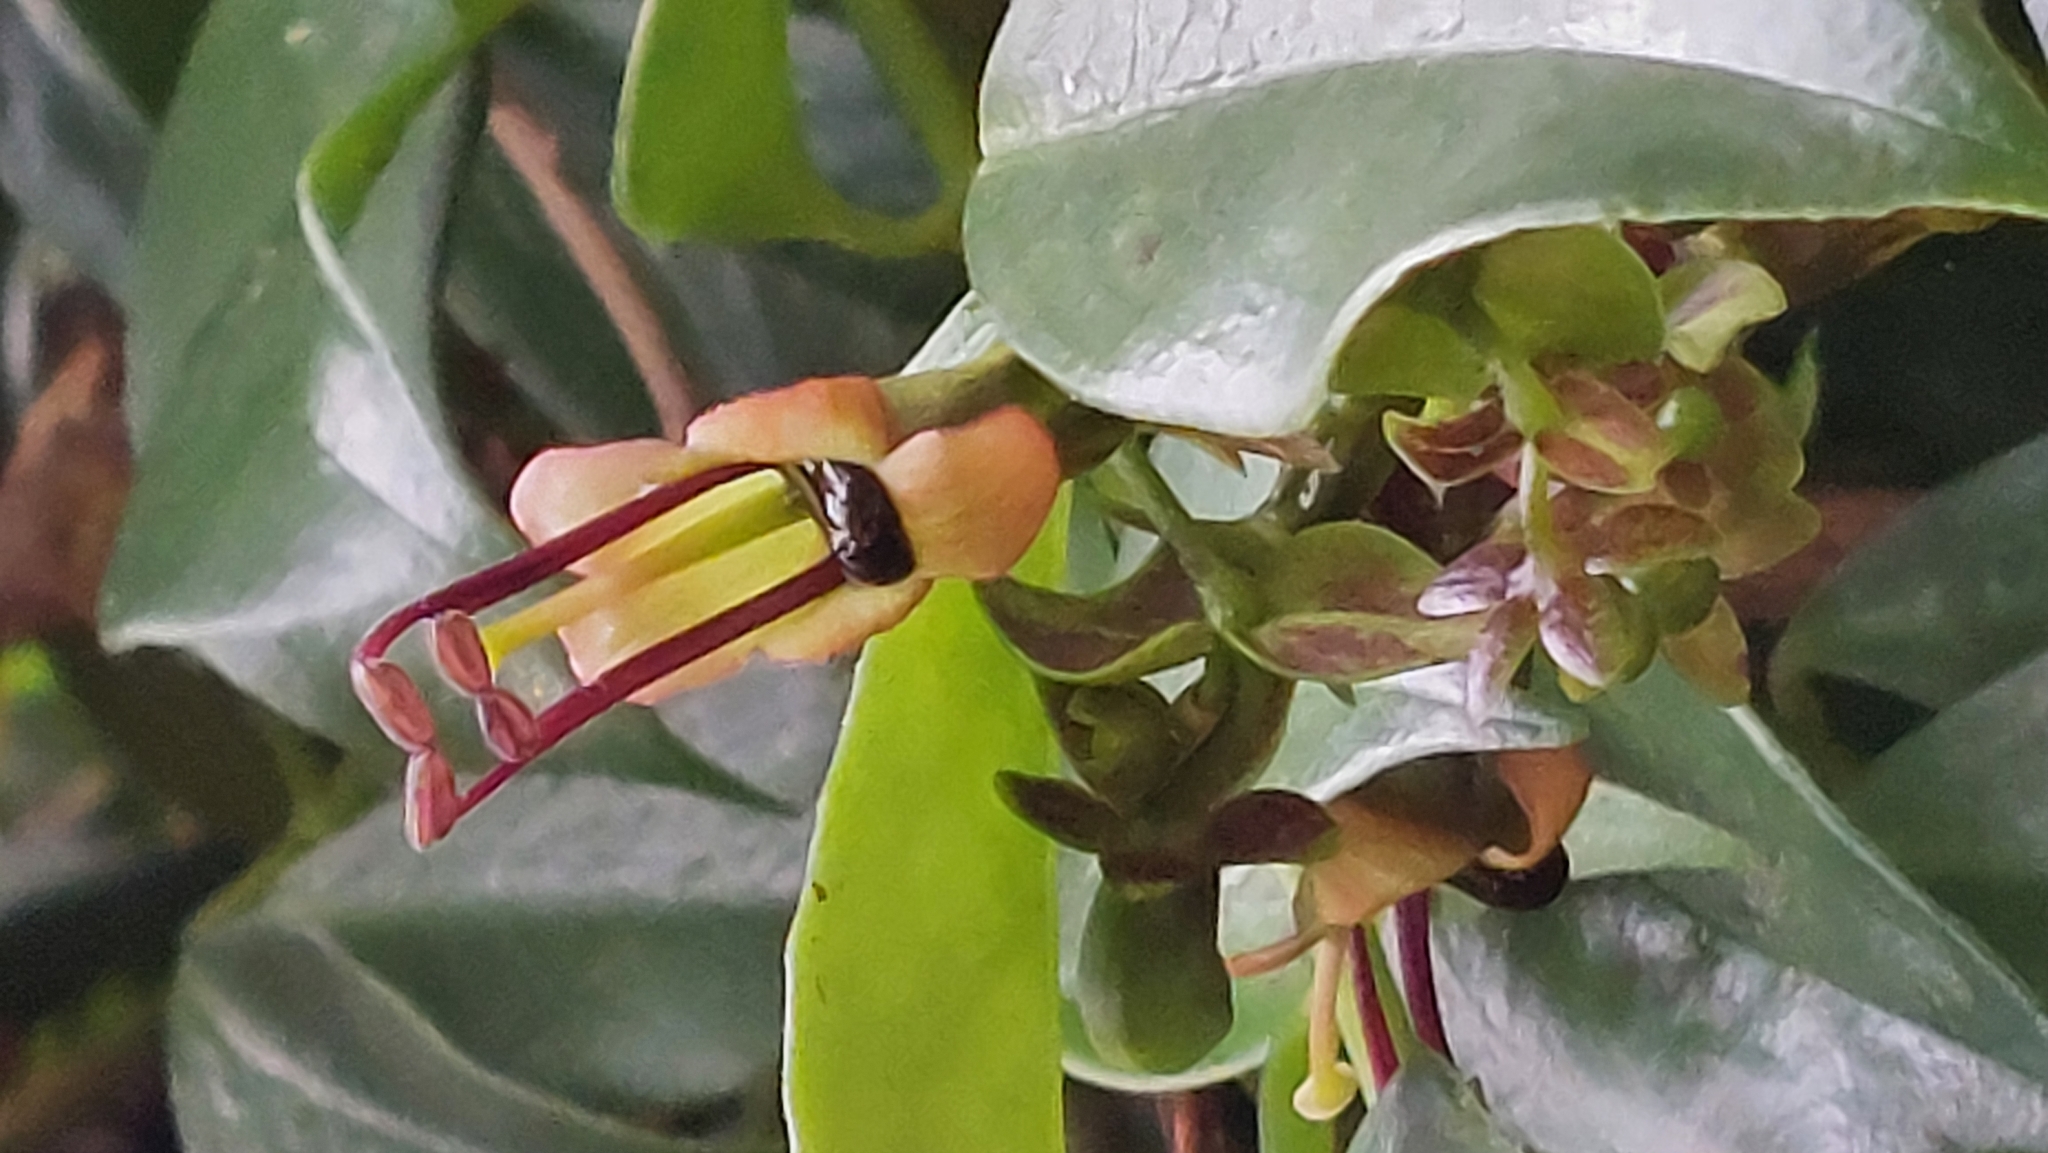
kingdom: Plantae
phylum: Tracheophyta
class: Magnoliopsida
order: Lamiales
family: Gesneriaceae
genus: Aeschynanthus
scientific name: Aeschynanthus acuminatus
